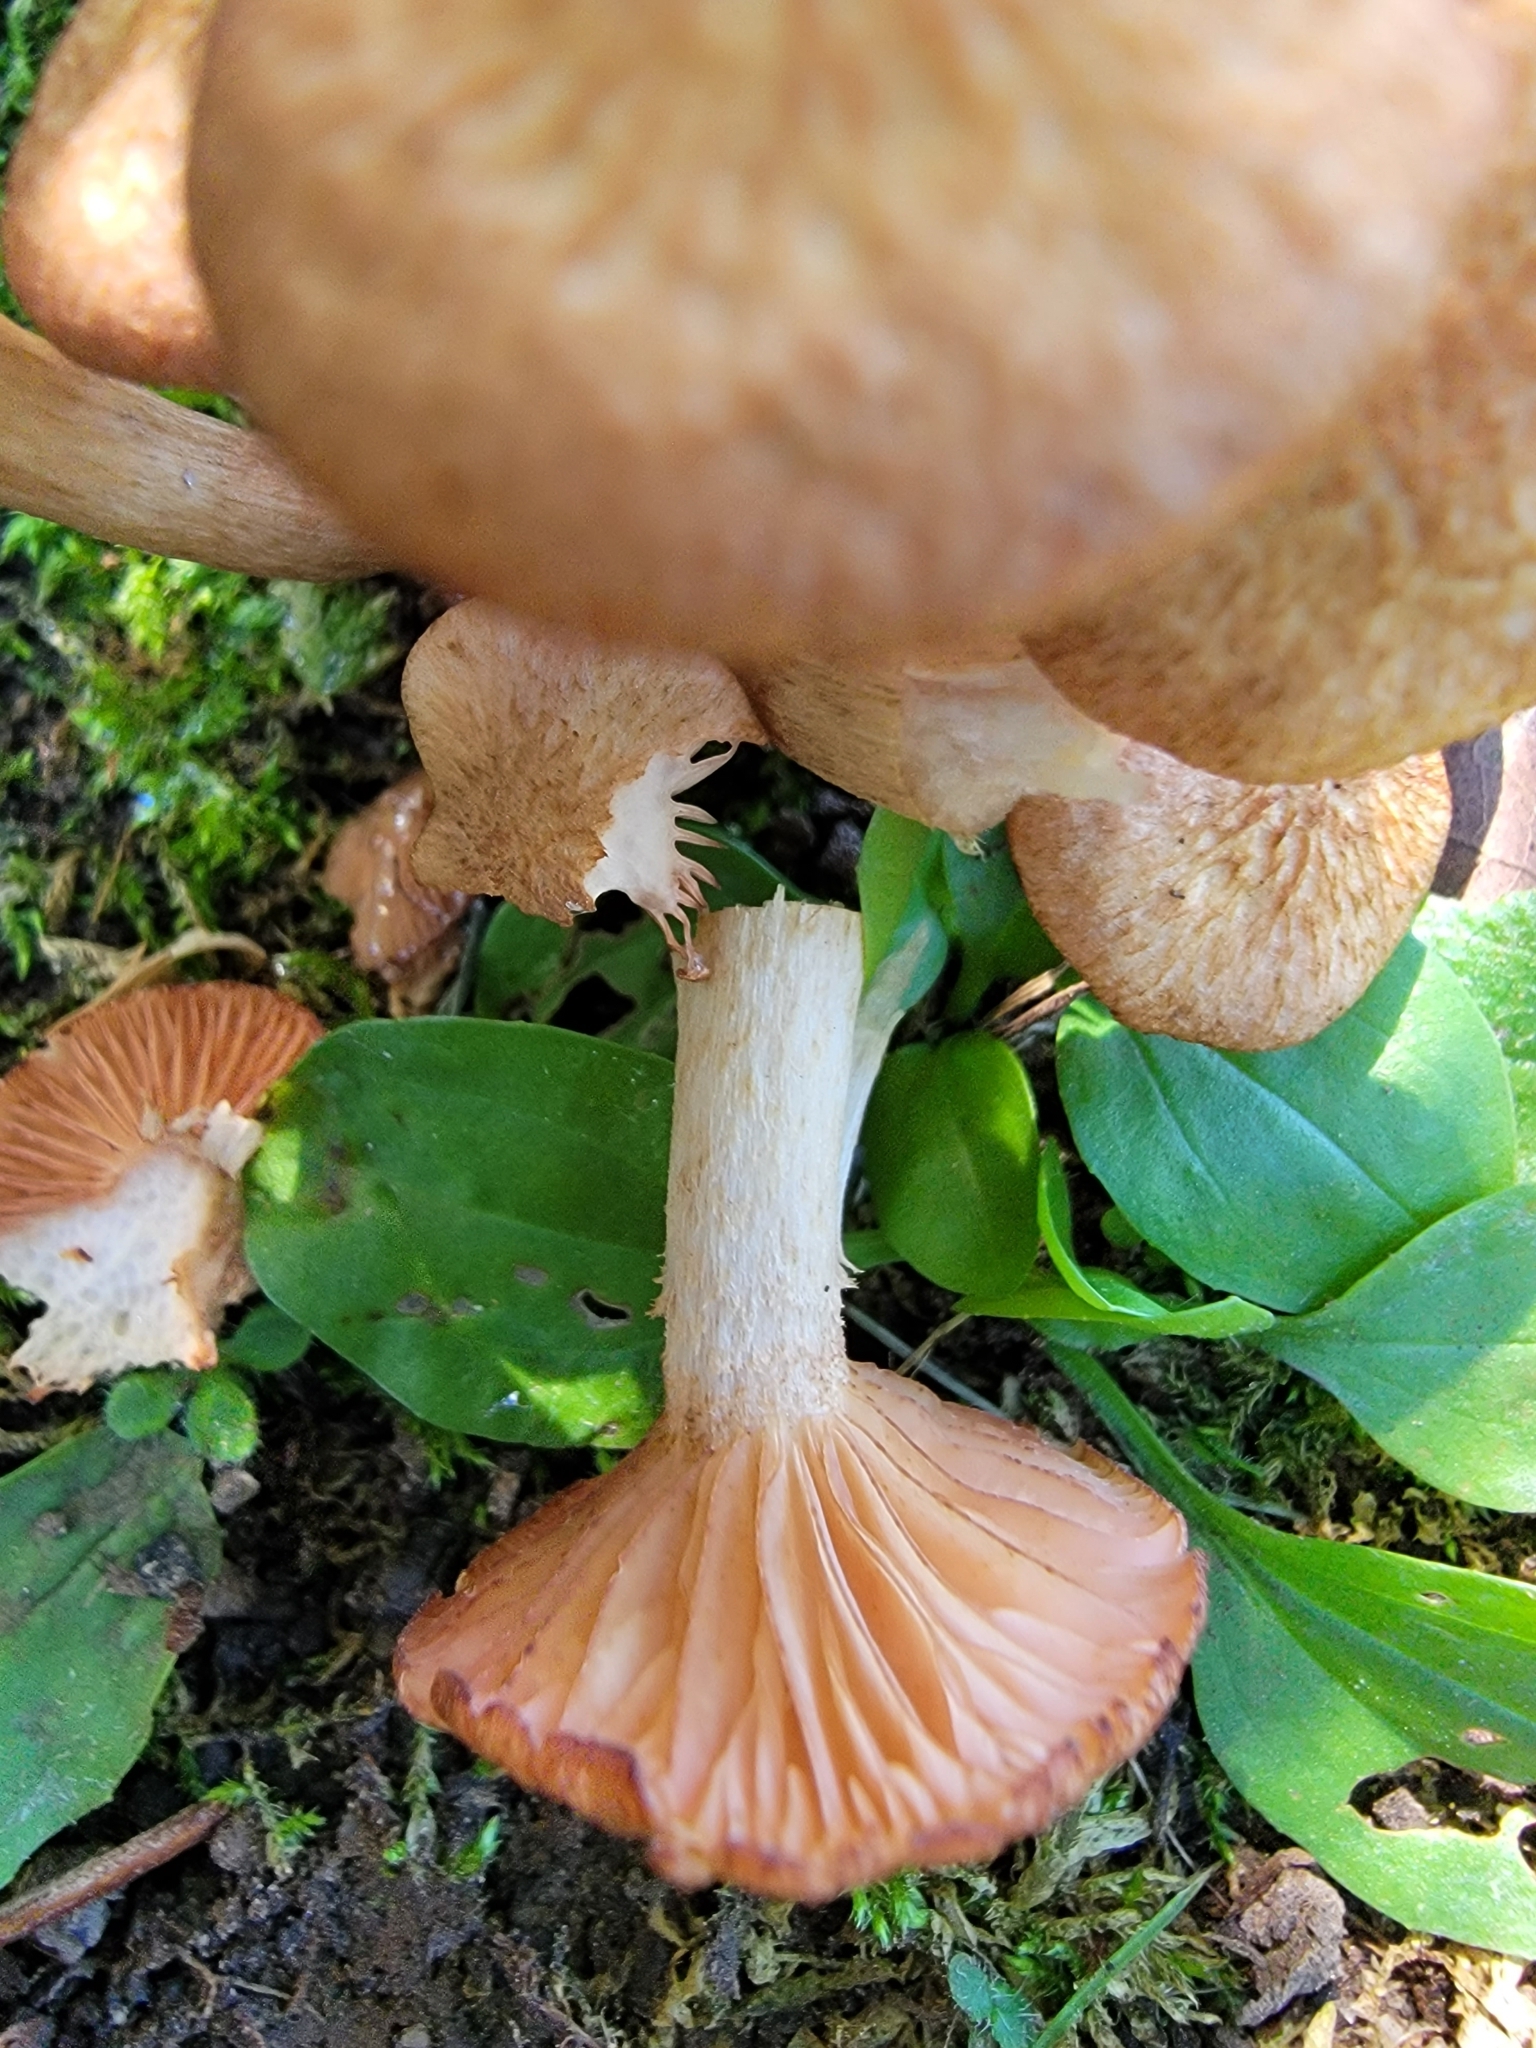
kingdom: Fungi
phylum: Basidiomycota
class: Agaricomycetes
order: Agaricales
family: Physalacriaceae
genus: Desarmillaria
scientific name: Desarmillaria caespitosa
